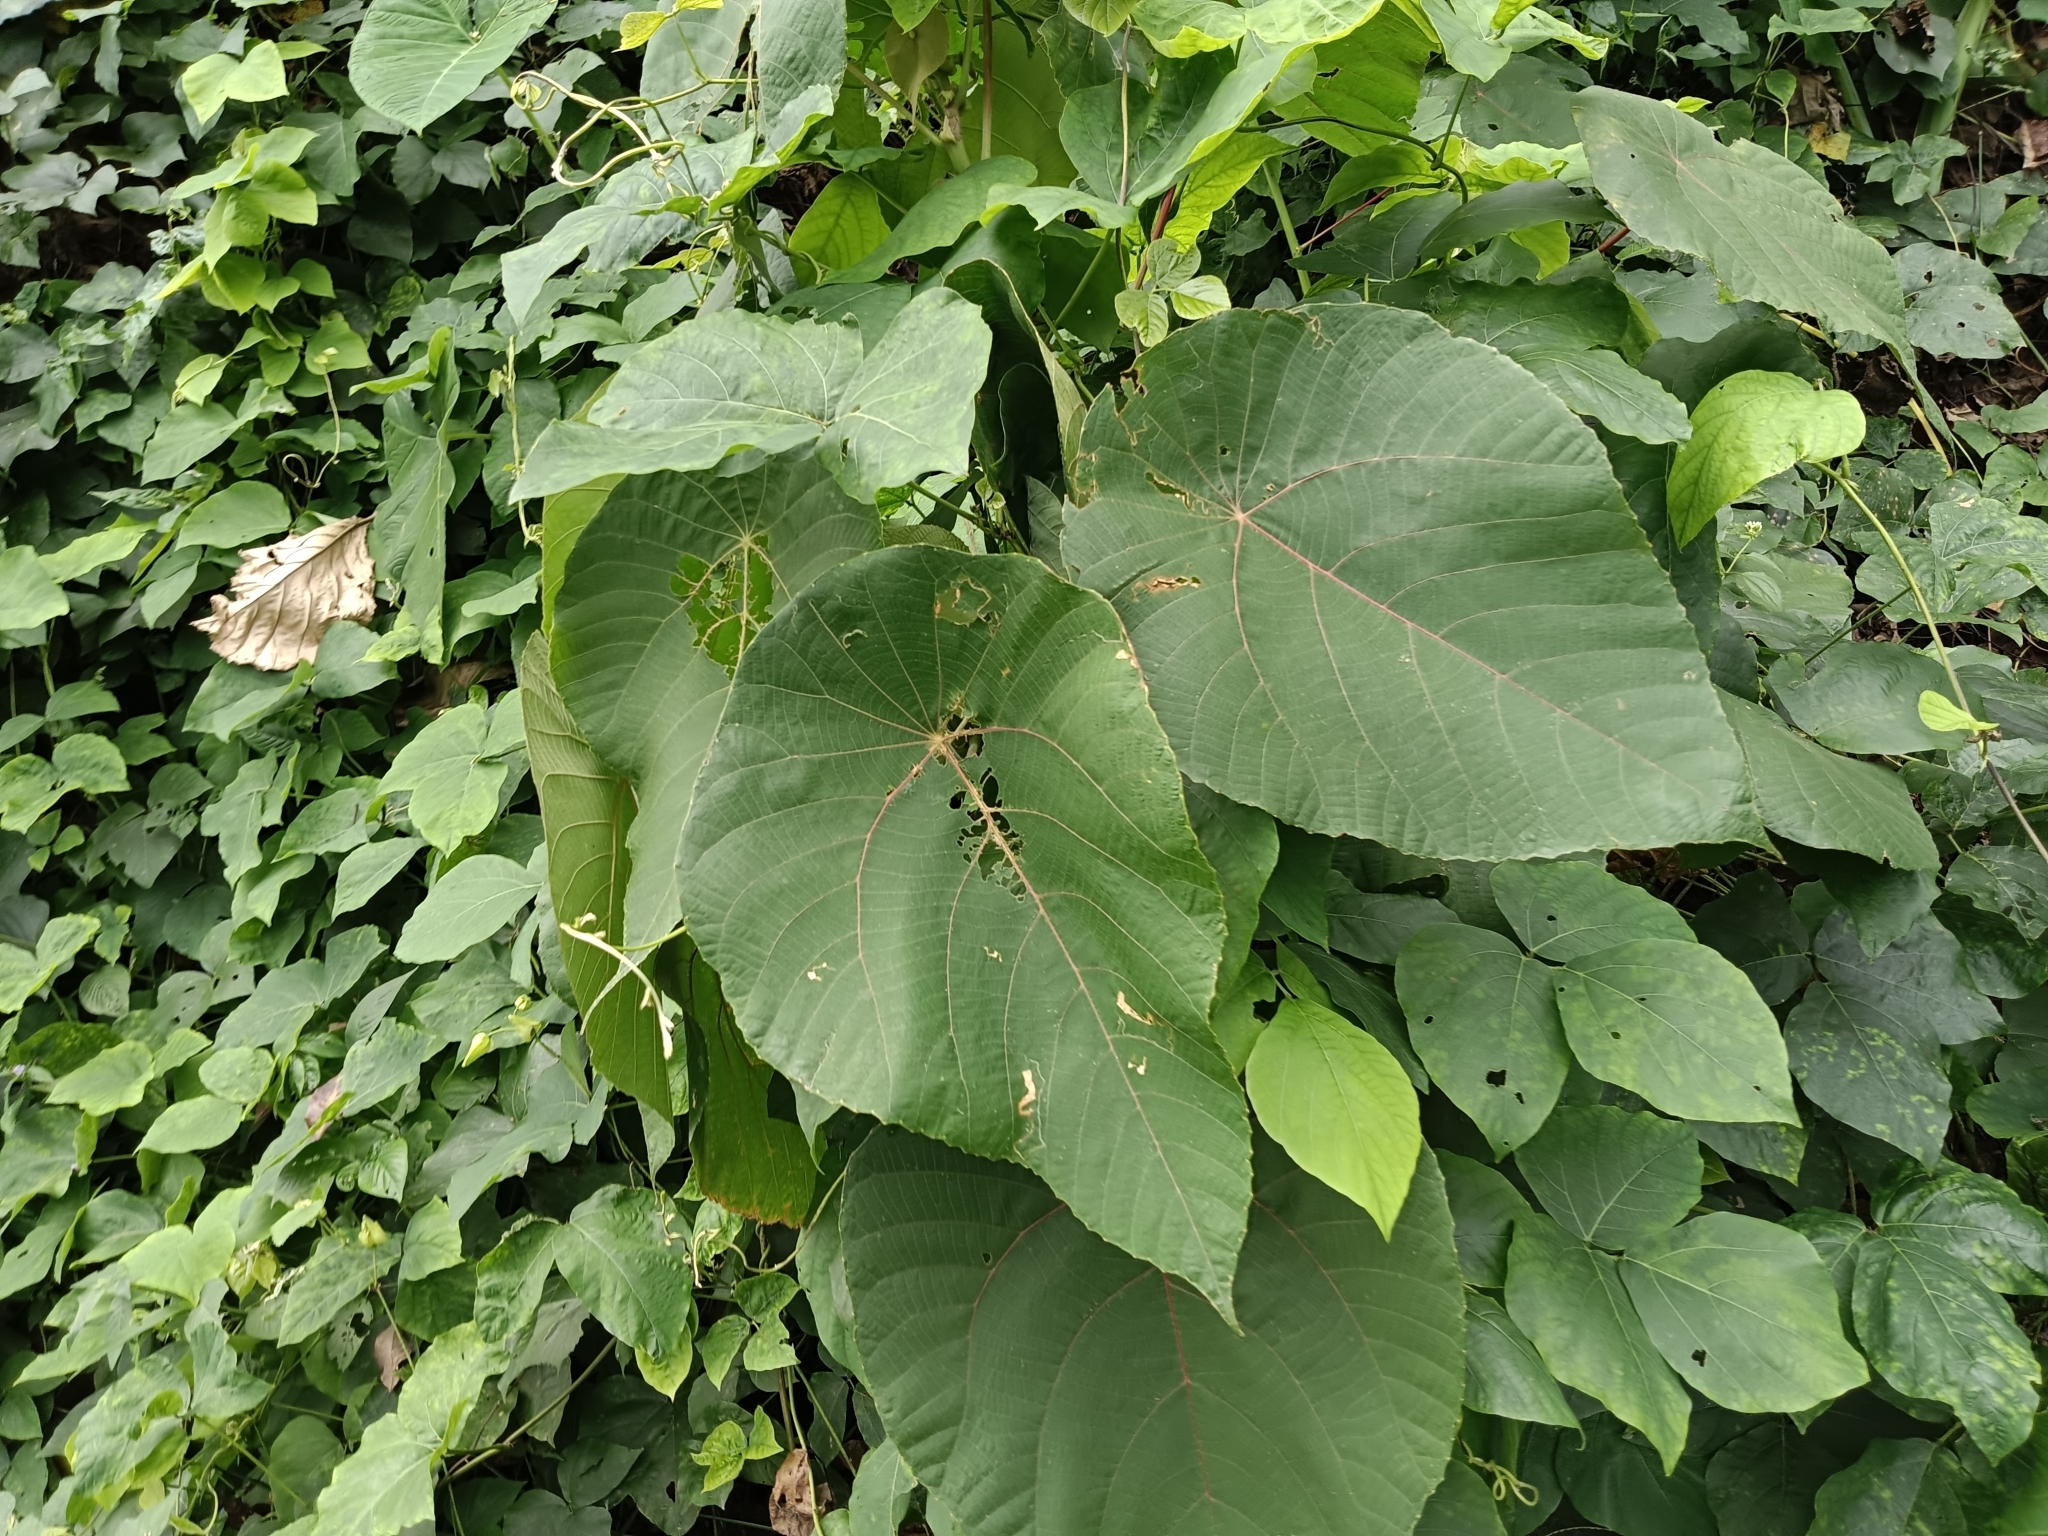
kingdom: Plantae
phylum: Tracheophyta
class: Magnoliopsida
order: Malpighiales
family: Euphorbiaceae
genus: Macaranga
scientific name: Macaranga peltata
